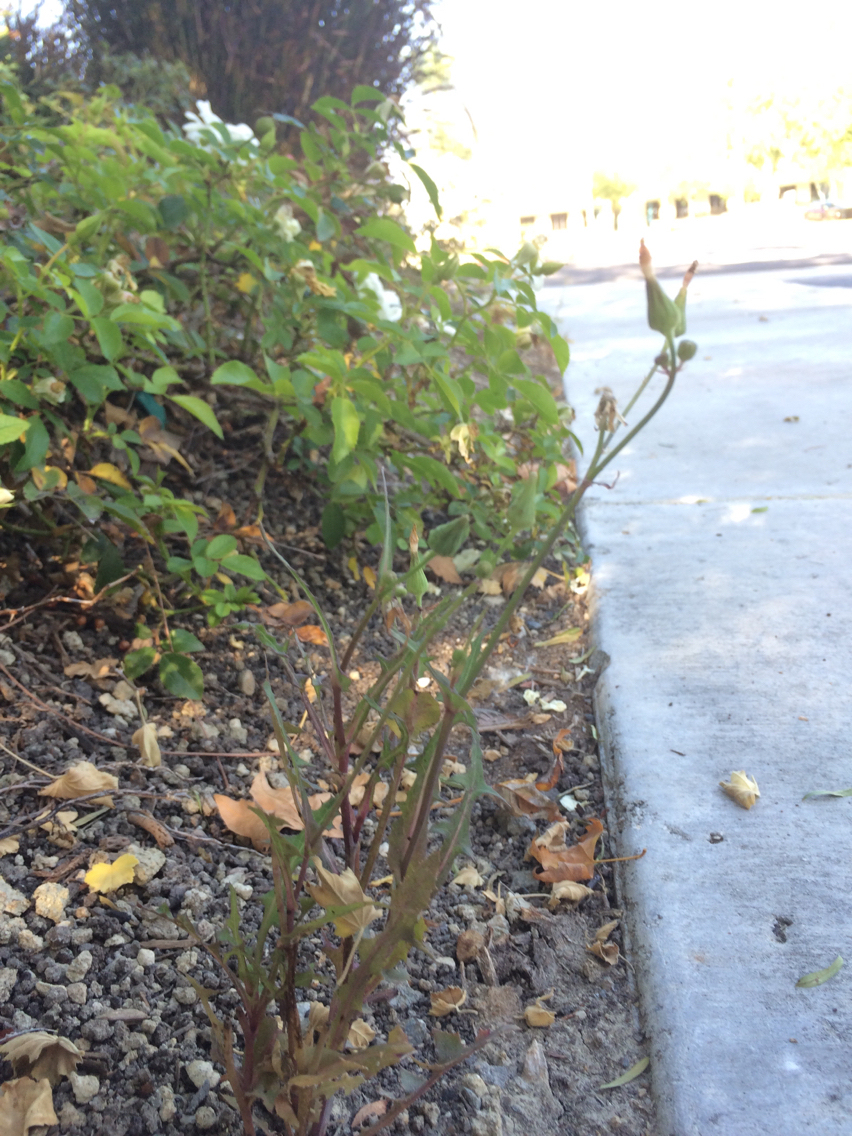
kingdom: Plantae
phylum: Tracheophyta
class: Magnoliopsida
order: Asterales
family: Asteraceae
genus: Sonchus
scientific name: Sonchus oleraceus
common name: Common sowthistle
